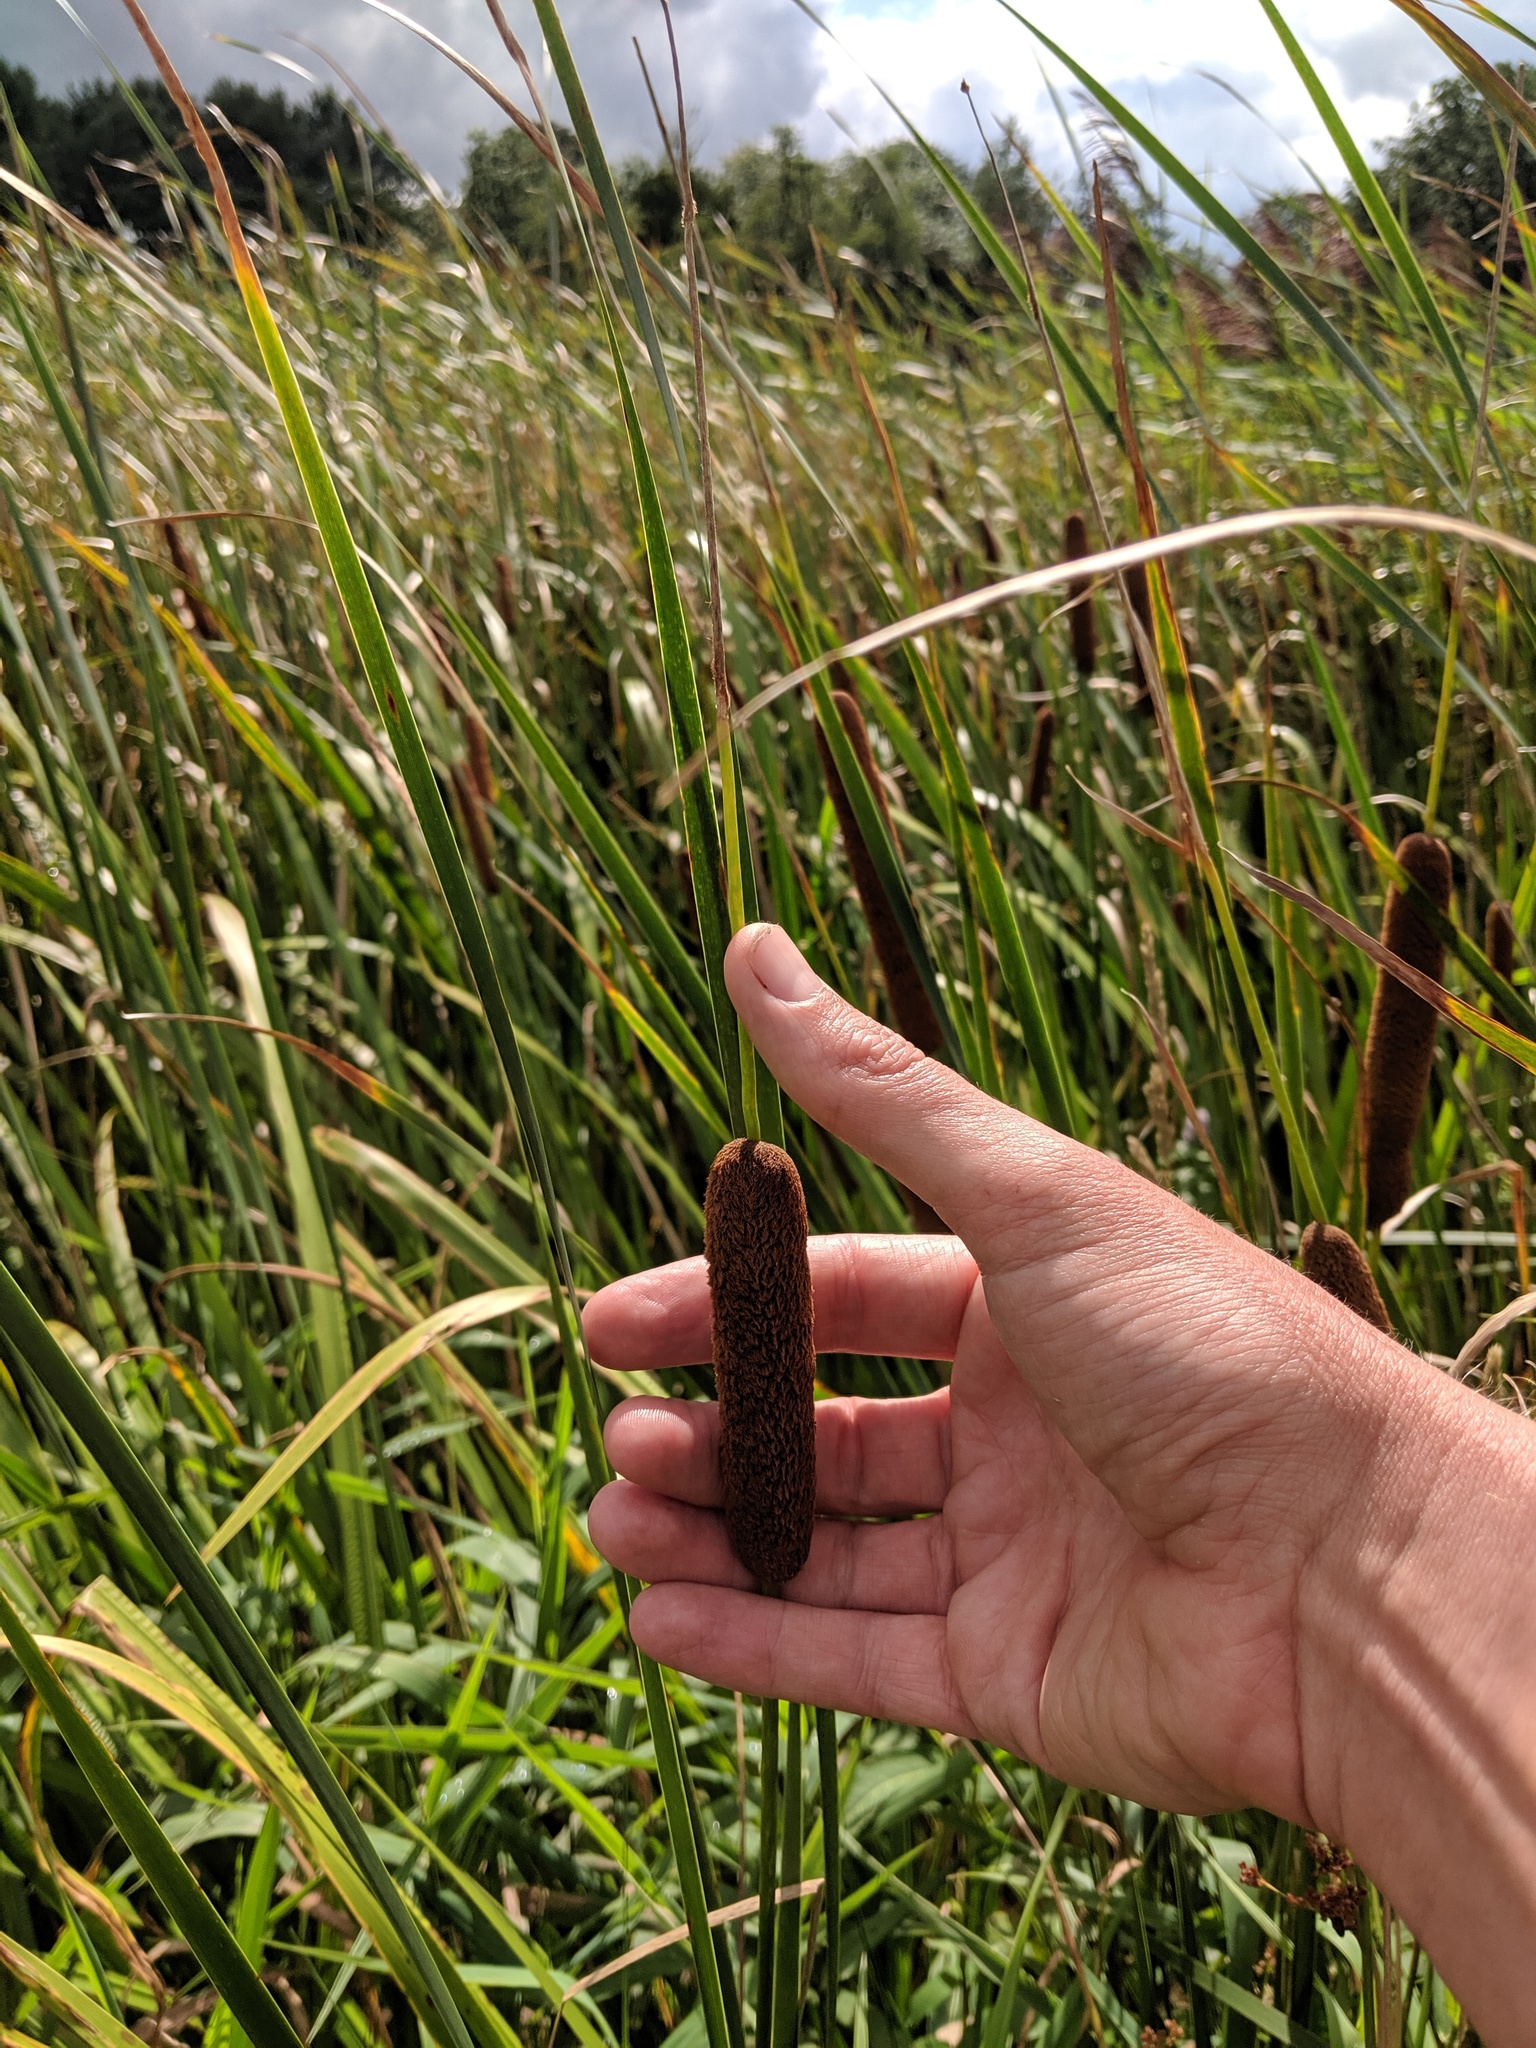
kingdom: Plantae
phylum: Tracheophyta
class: Liliopsida
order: Poales
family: Typhaceae
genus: Typha
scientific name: Typha angustifolia
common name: Lesser bulrush
